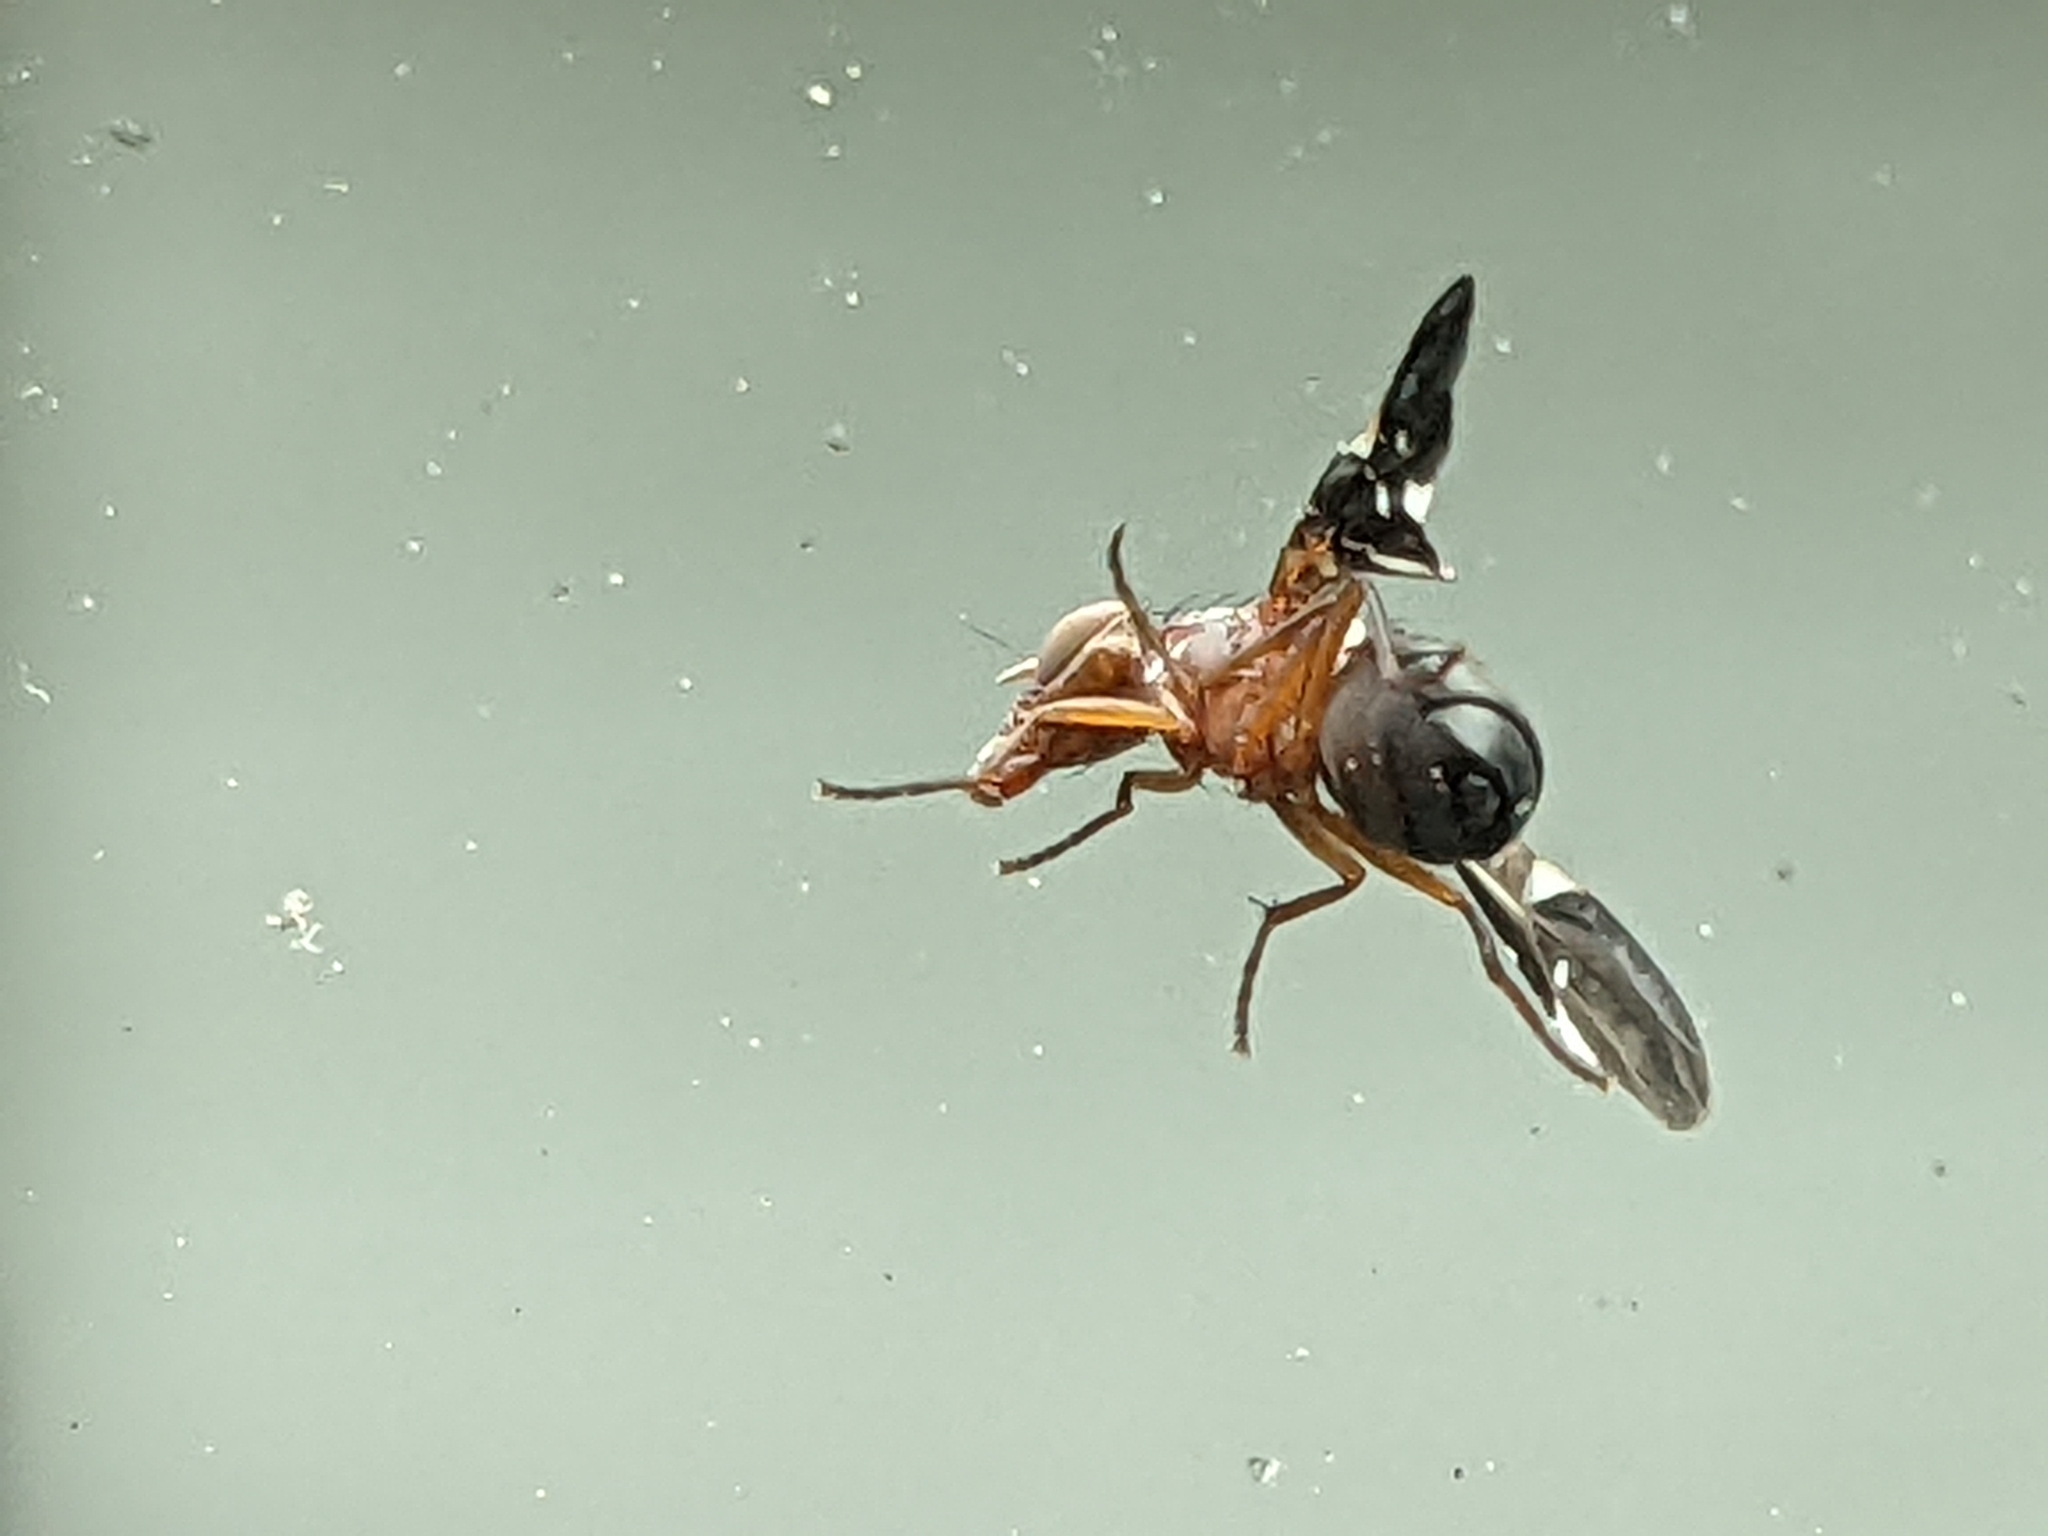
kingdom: Animalia
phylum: Arthropoda
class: Insecta
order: Diptera
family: Ulidiidae
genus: Delphinia
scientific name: Delphinia picta
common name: Common picture-winged fly
